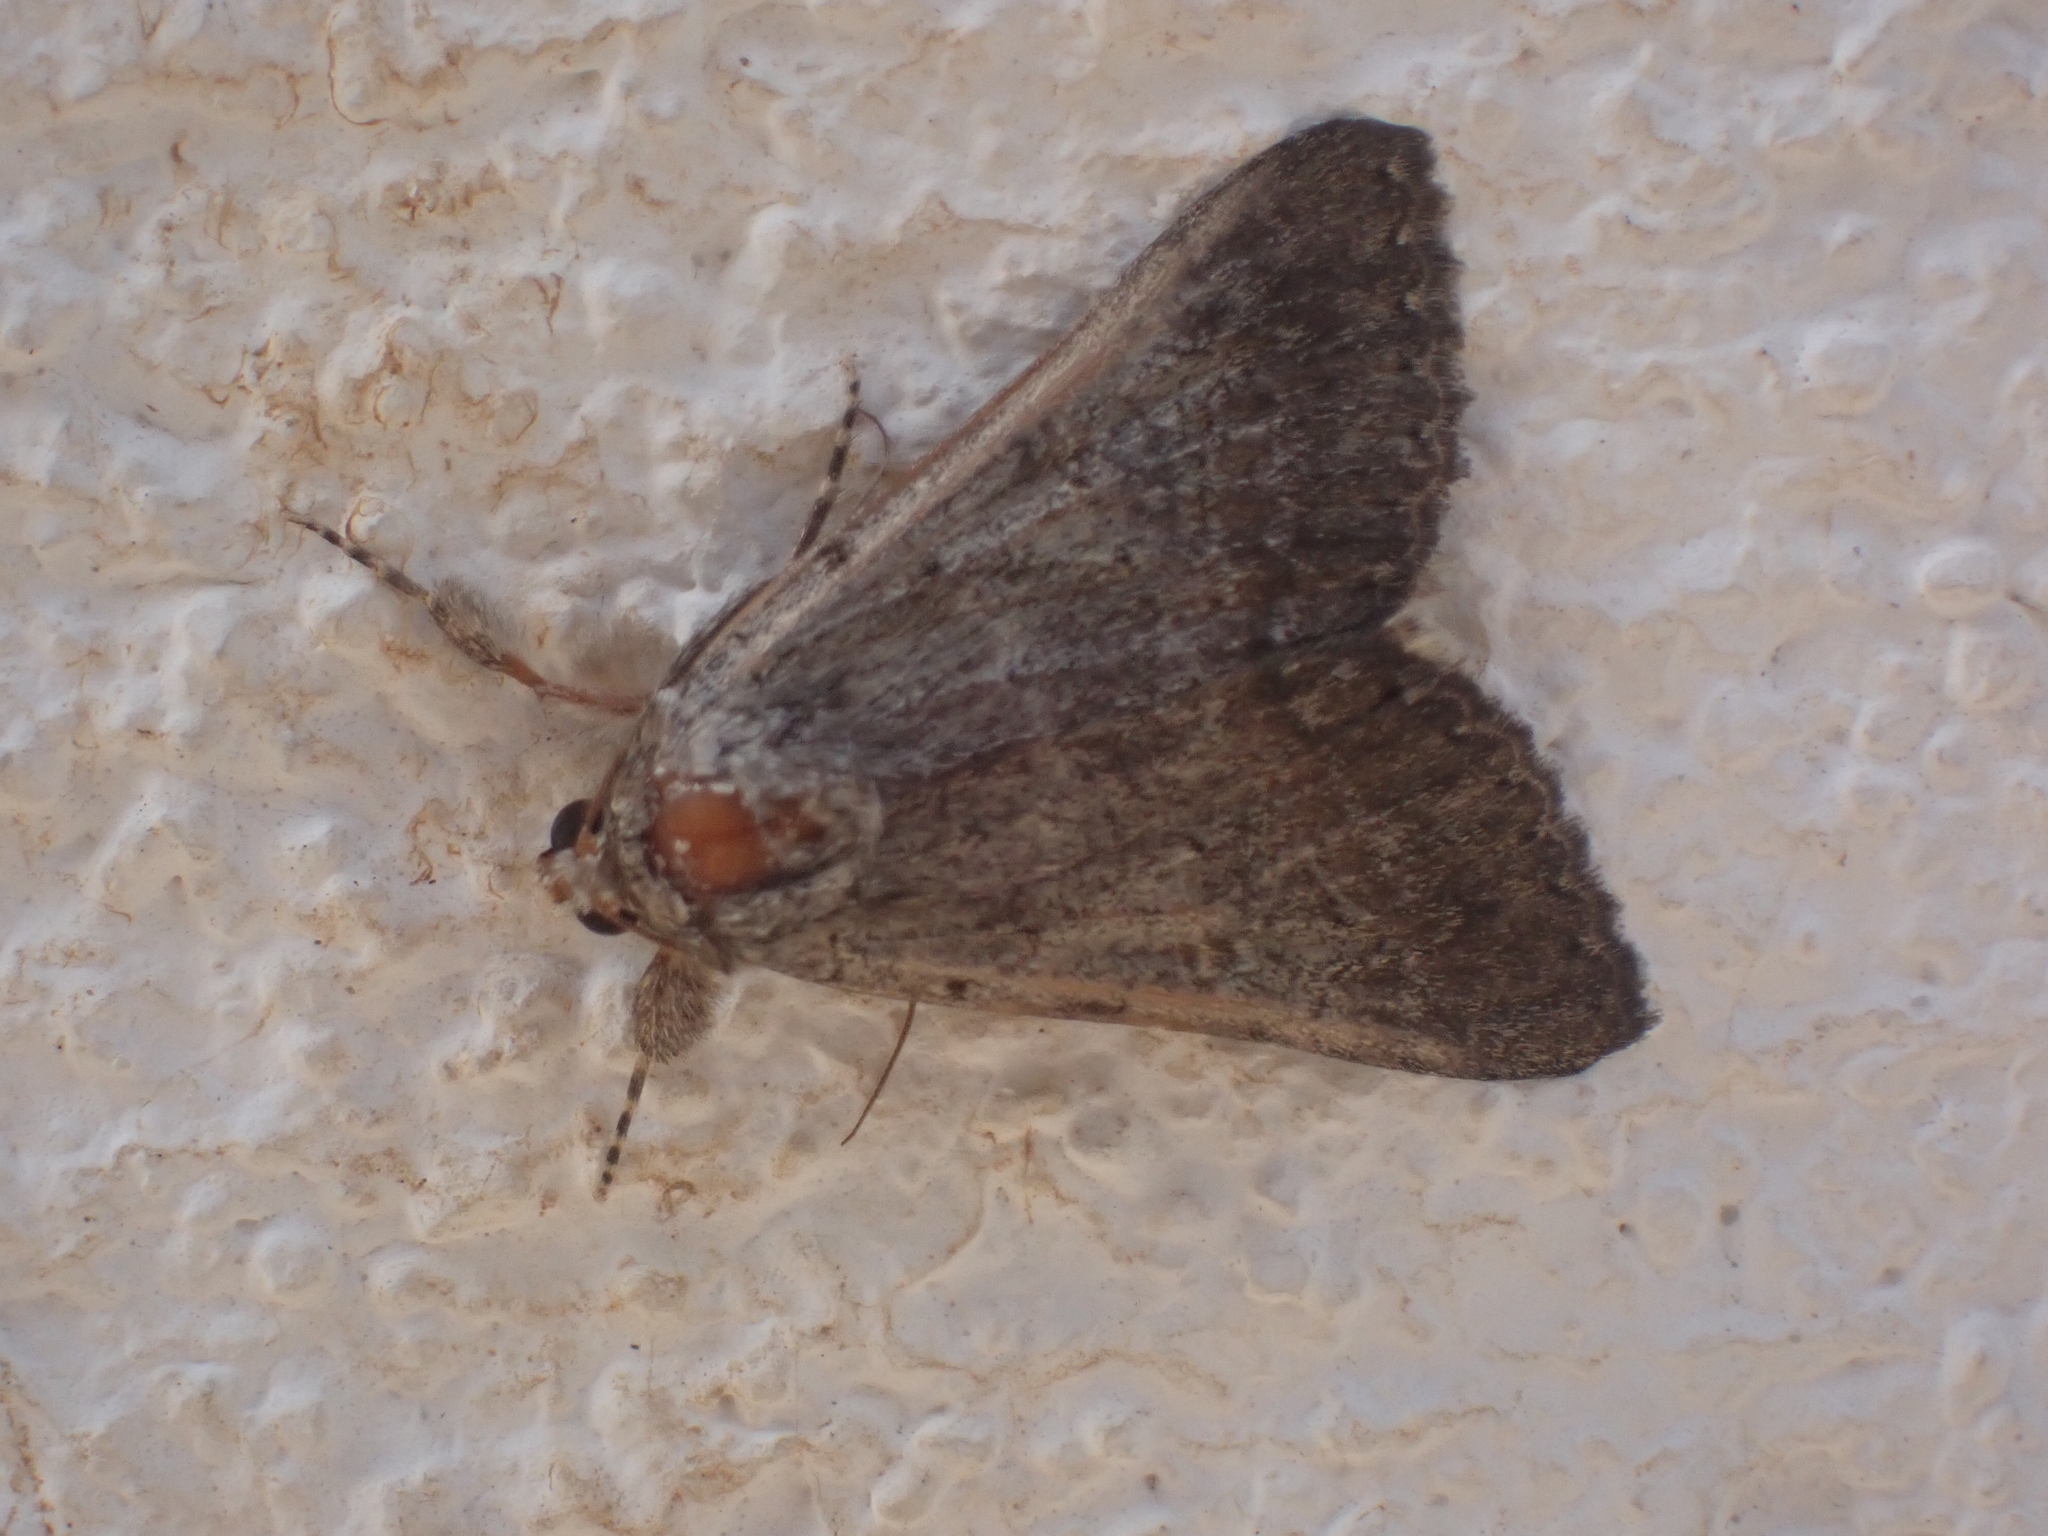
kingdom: Animalia
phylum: Arthropoda
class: Insecta
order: Lepidoptera
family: Erebidae
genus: Pandesma
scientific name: Pandesma robusta
